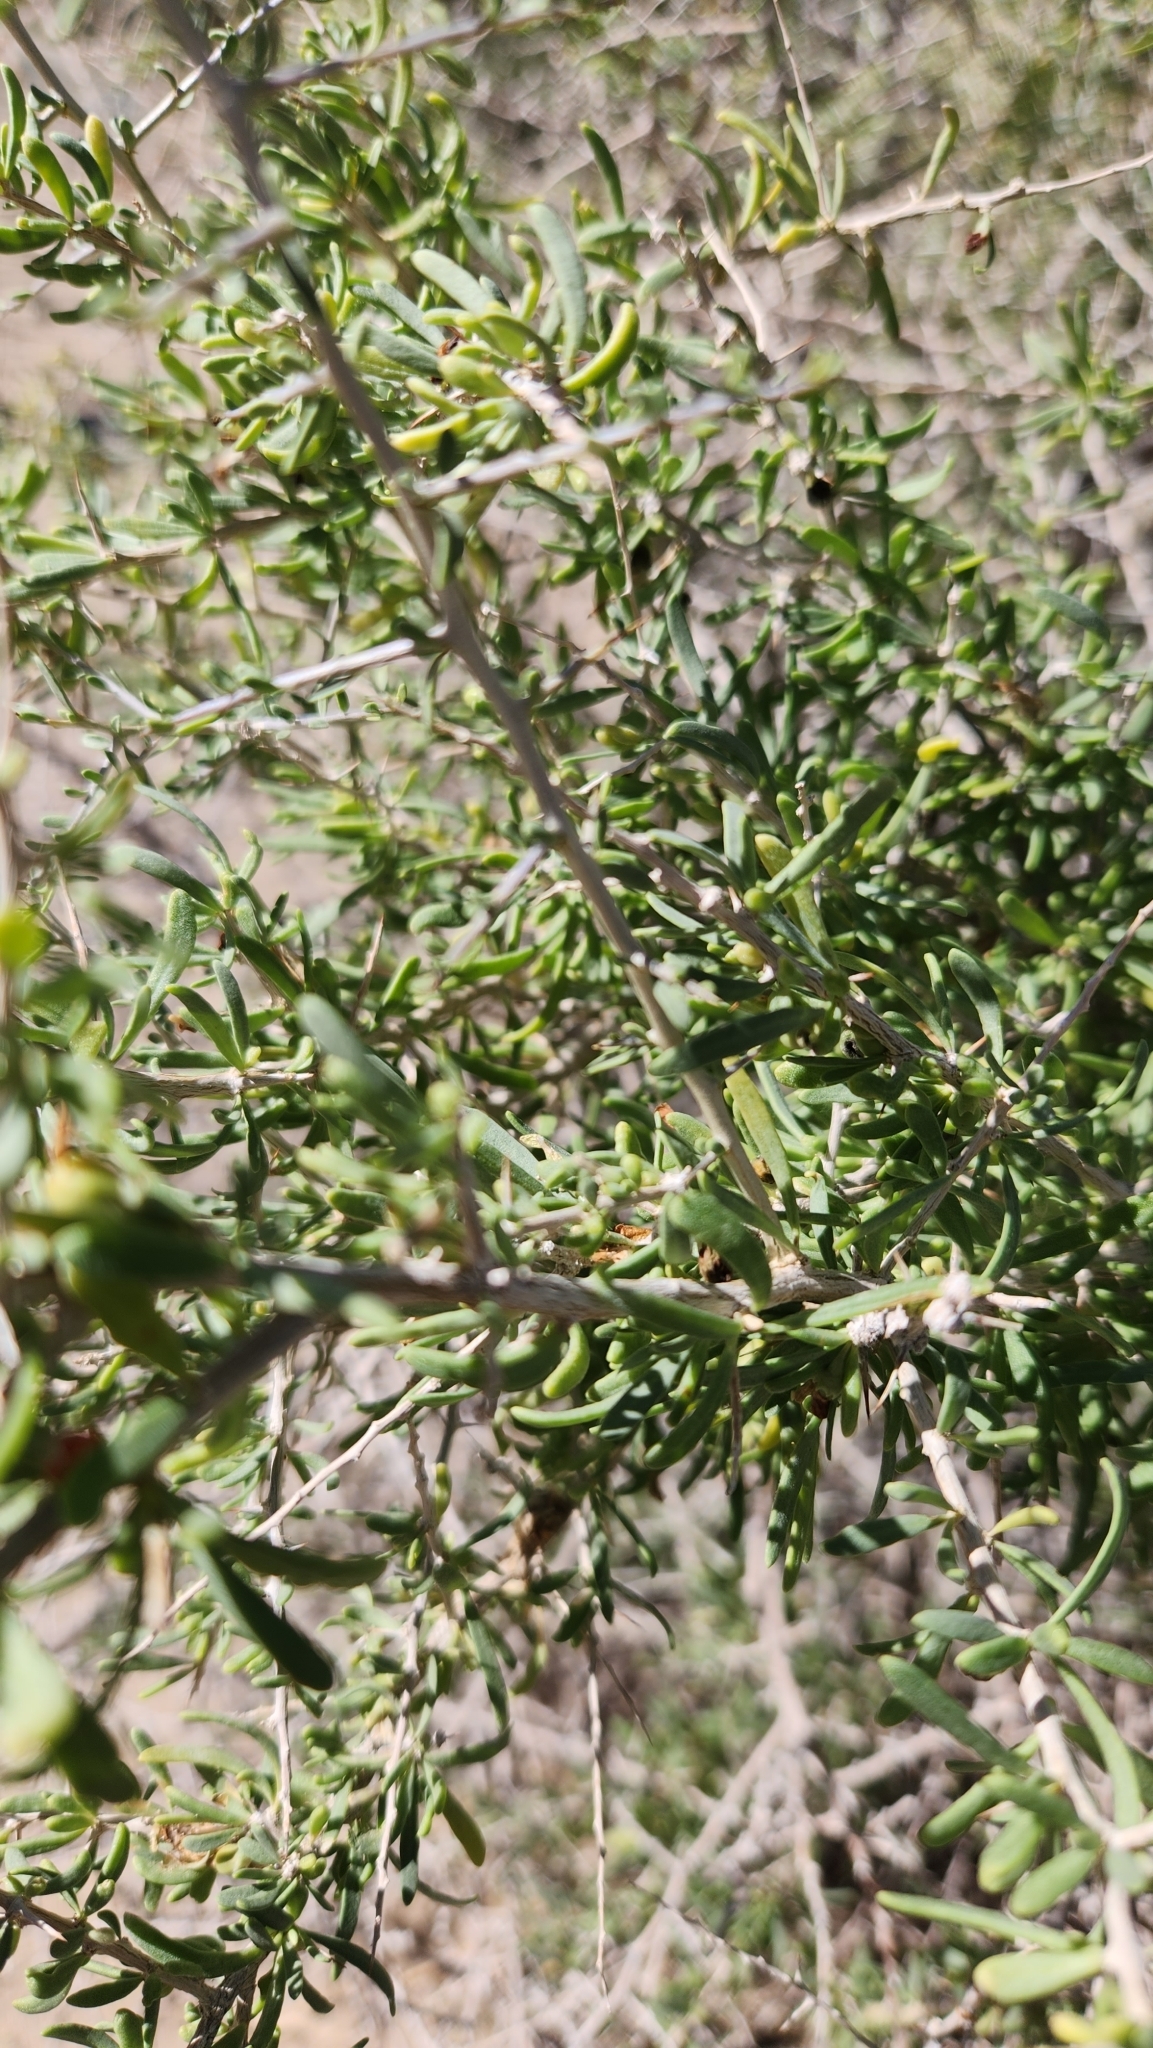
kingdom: Plantae
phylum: Tracheophyta
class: Magnoliopsida
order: Solanales
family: Solanaceae
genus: Lycium
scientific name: Lycium andersonii
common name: Water-jacket
